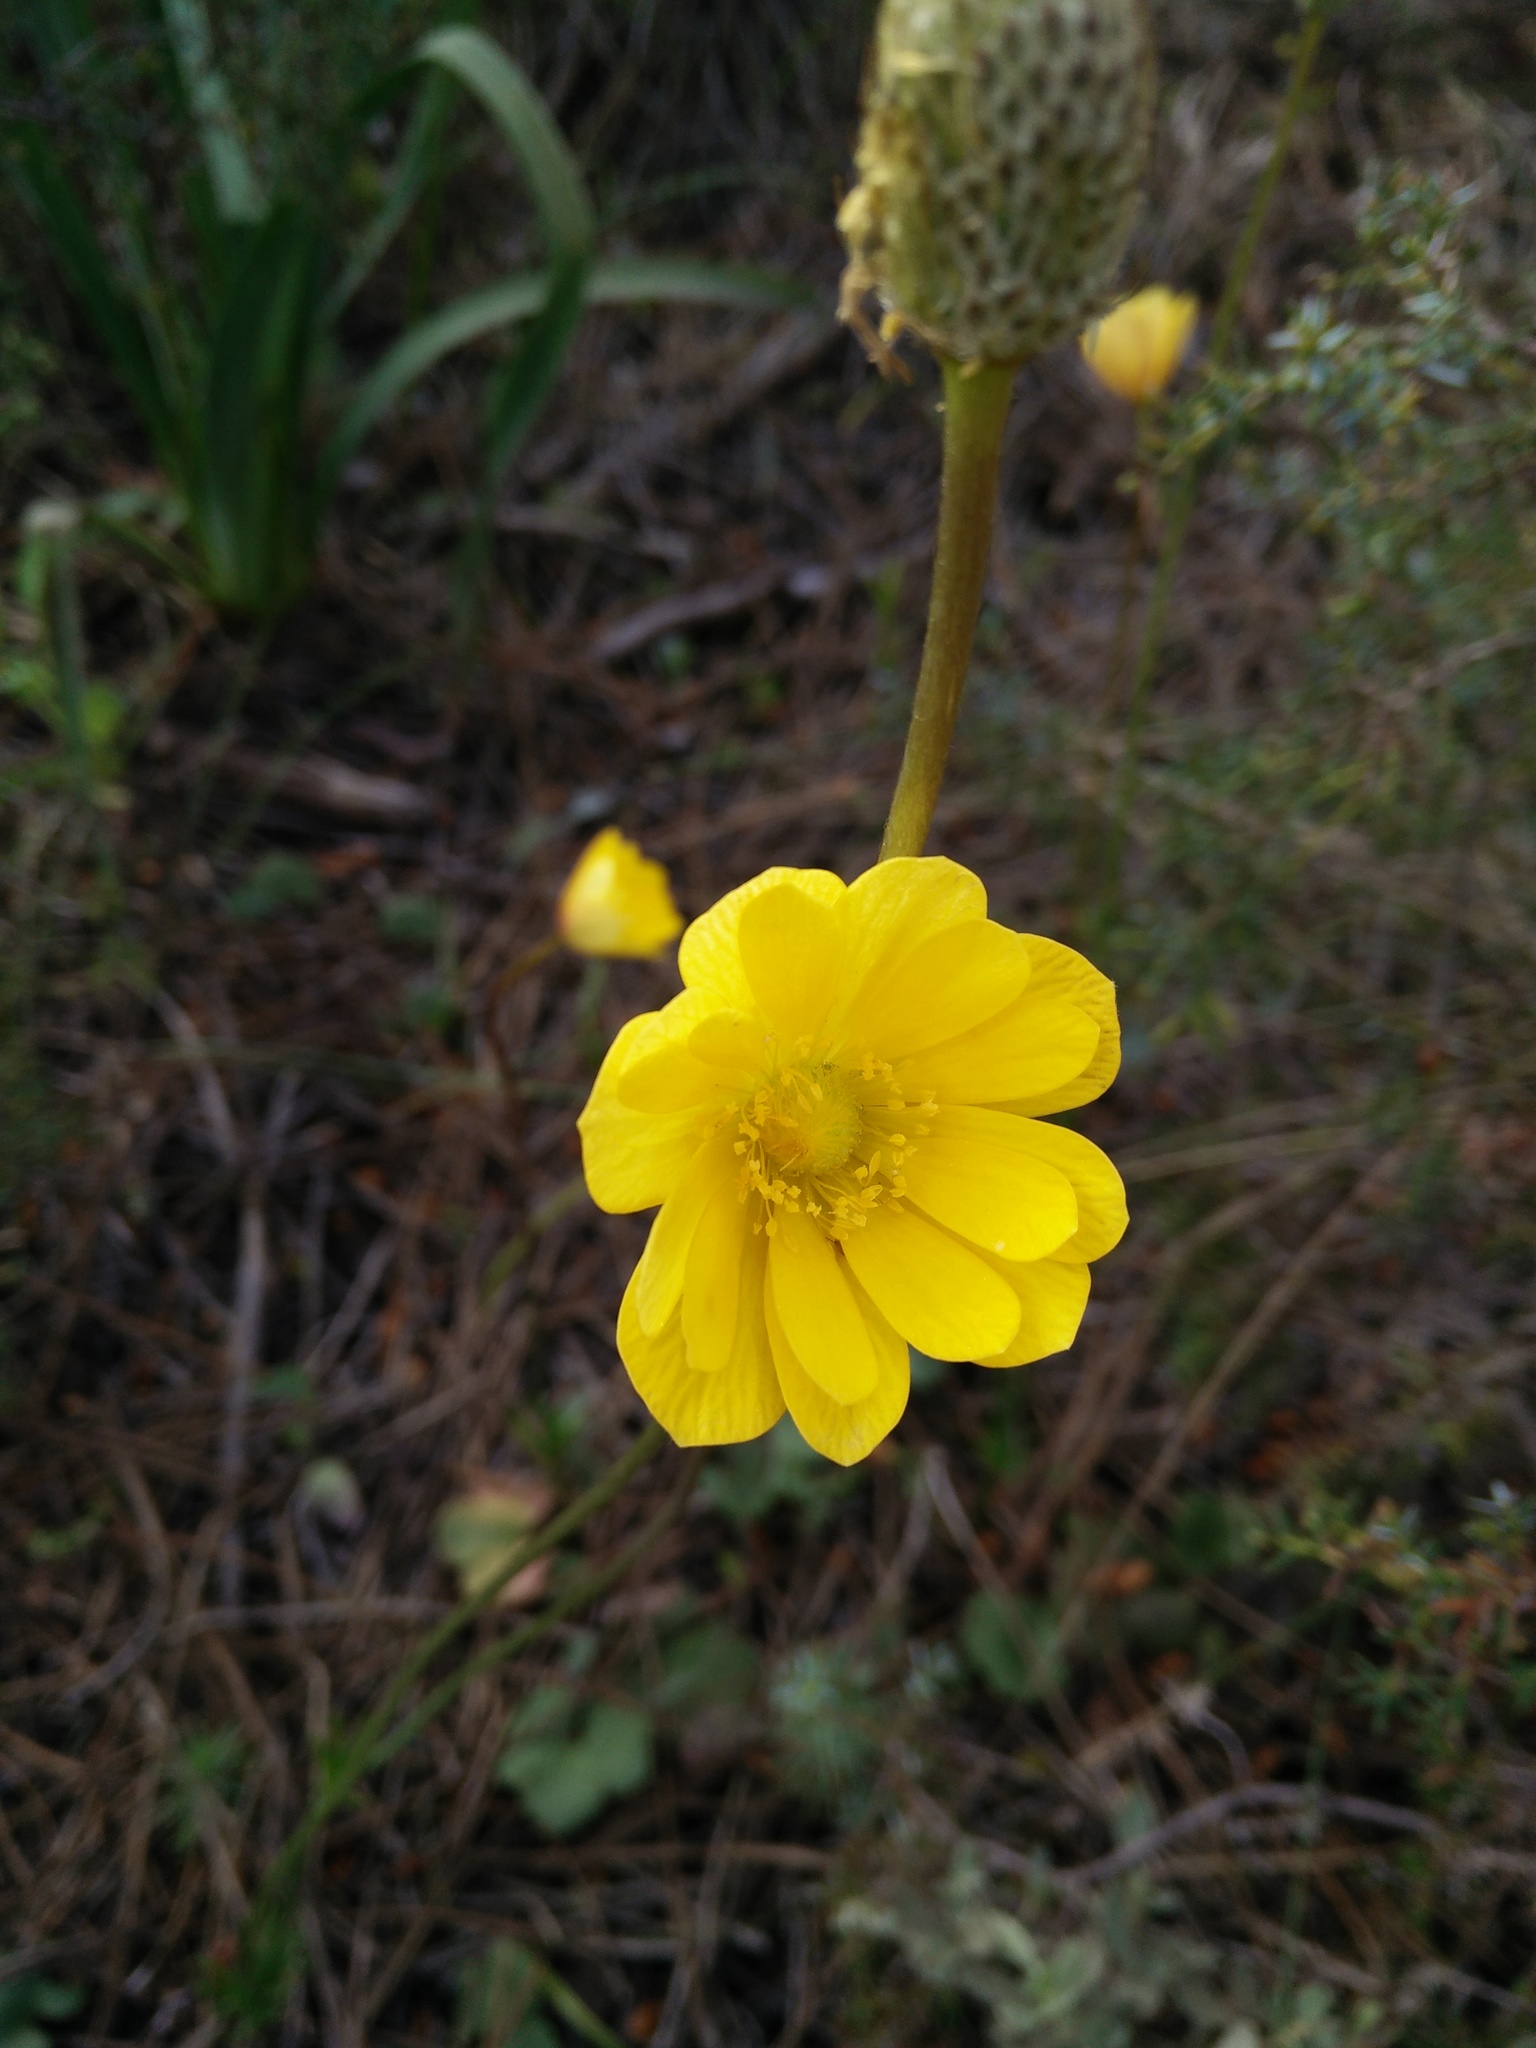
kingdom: Plantae
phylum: Tracheophyta
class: Magnoliopsida
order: Ranunculales
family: Ranunculaceae
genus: Anemone
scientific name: Anemone palmata
